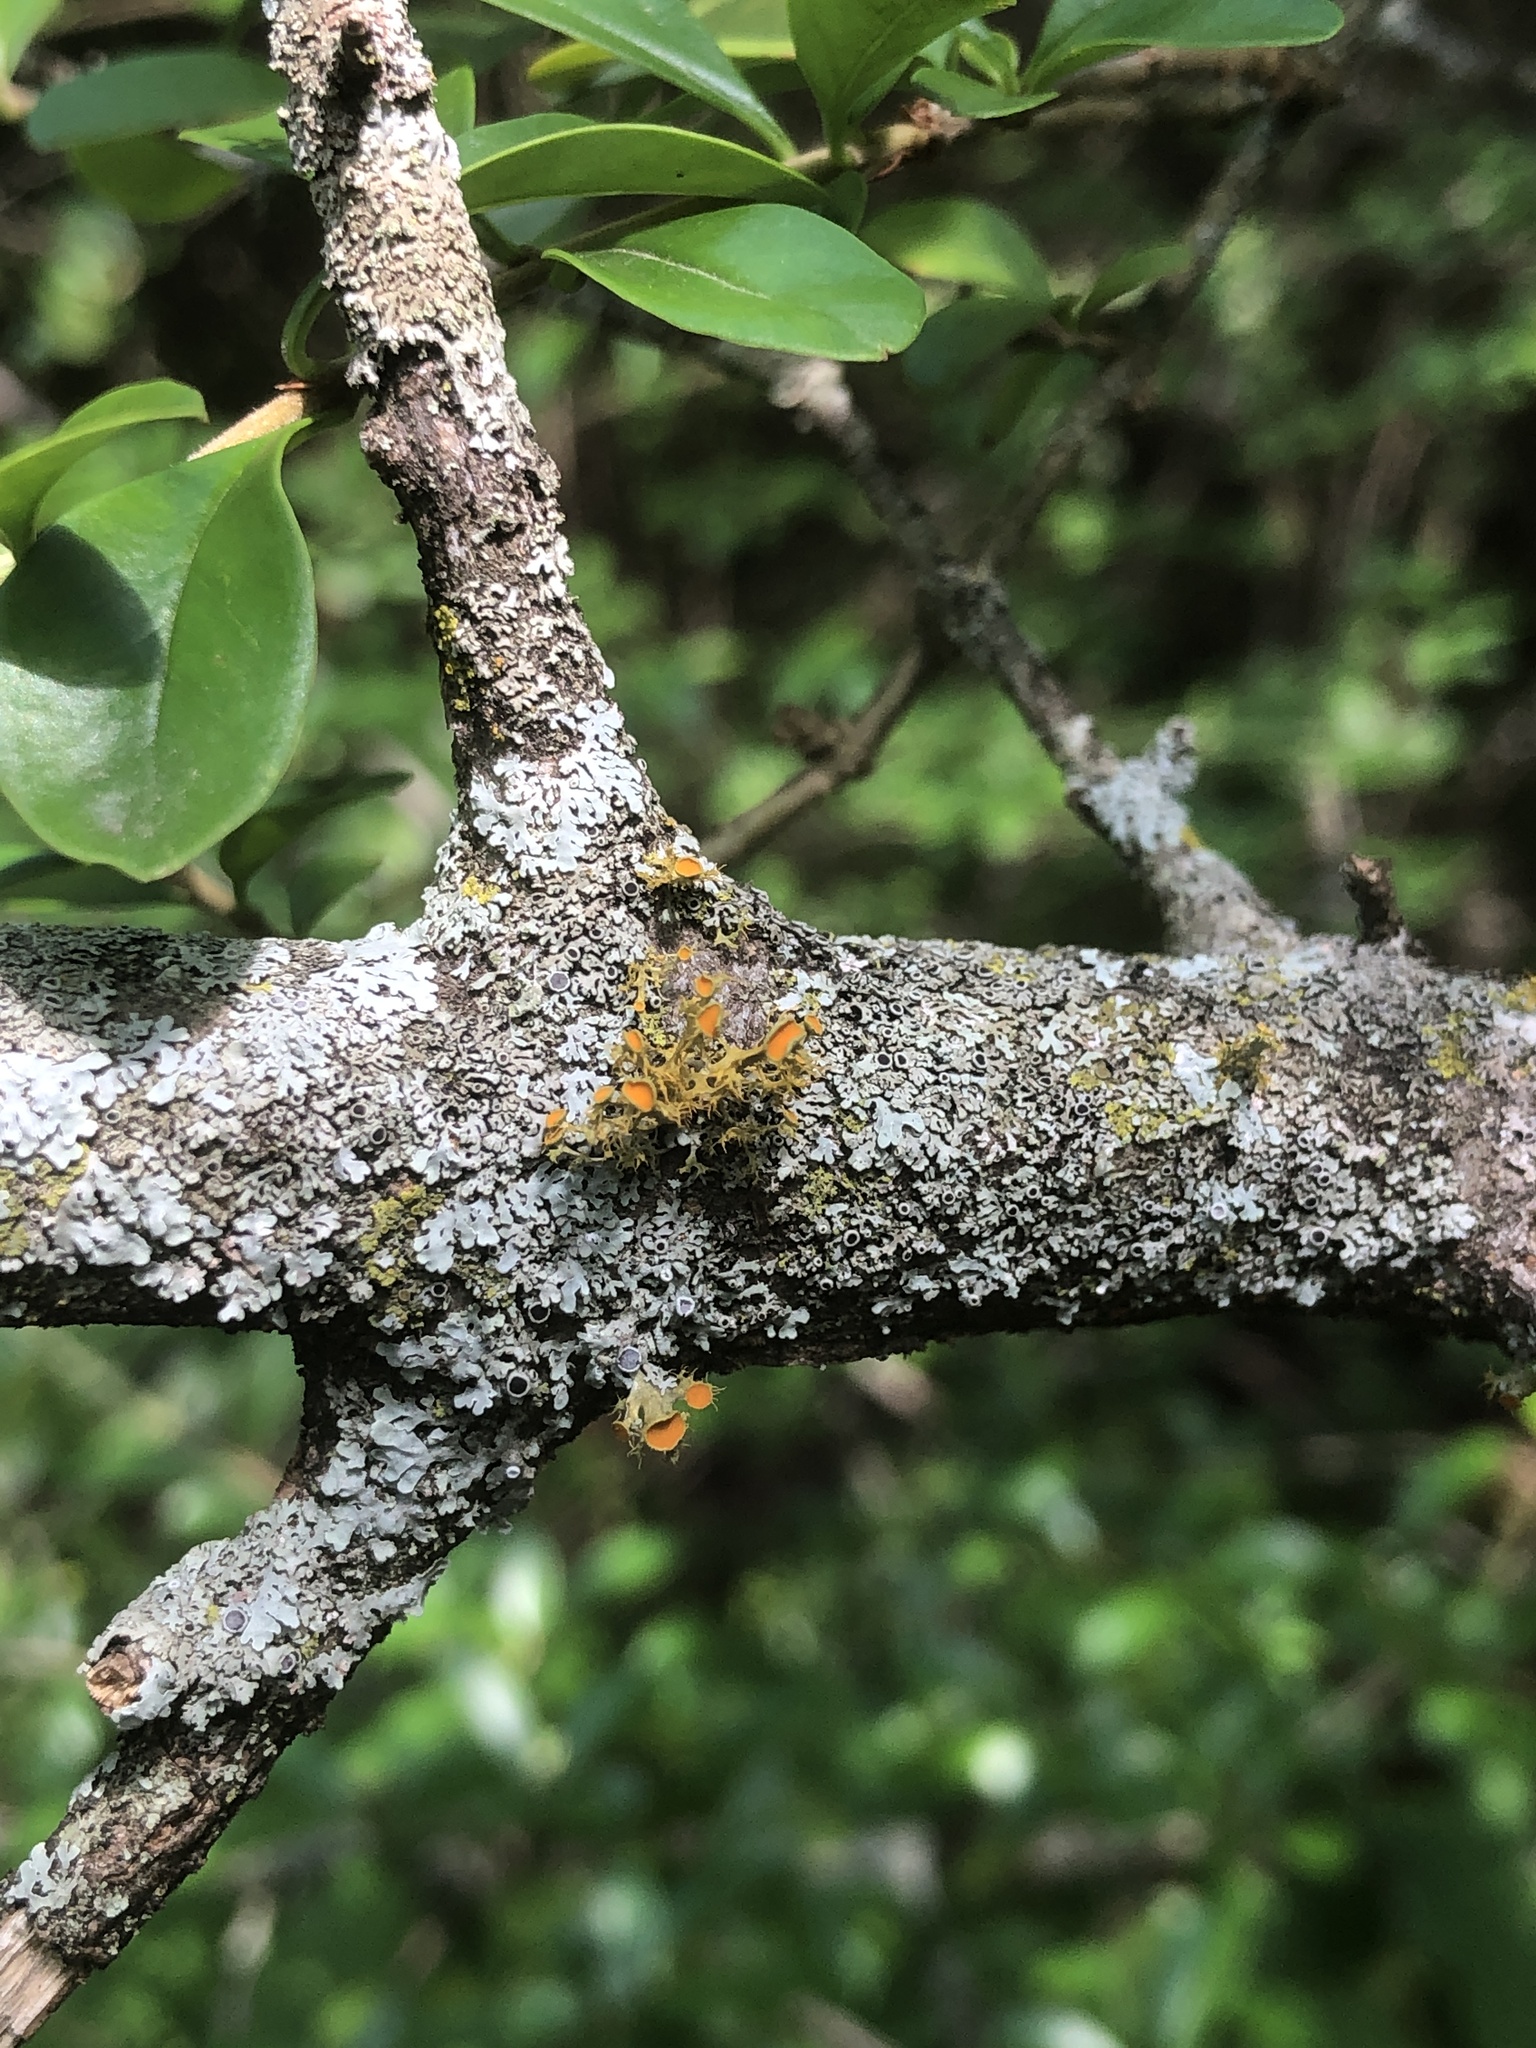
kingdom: Fungi
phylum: Ascomycota
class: Lecanoromycetes
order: Teloschistales
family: Teloschistaceae
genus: Niorma
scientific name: Niorma chrysophthalma
